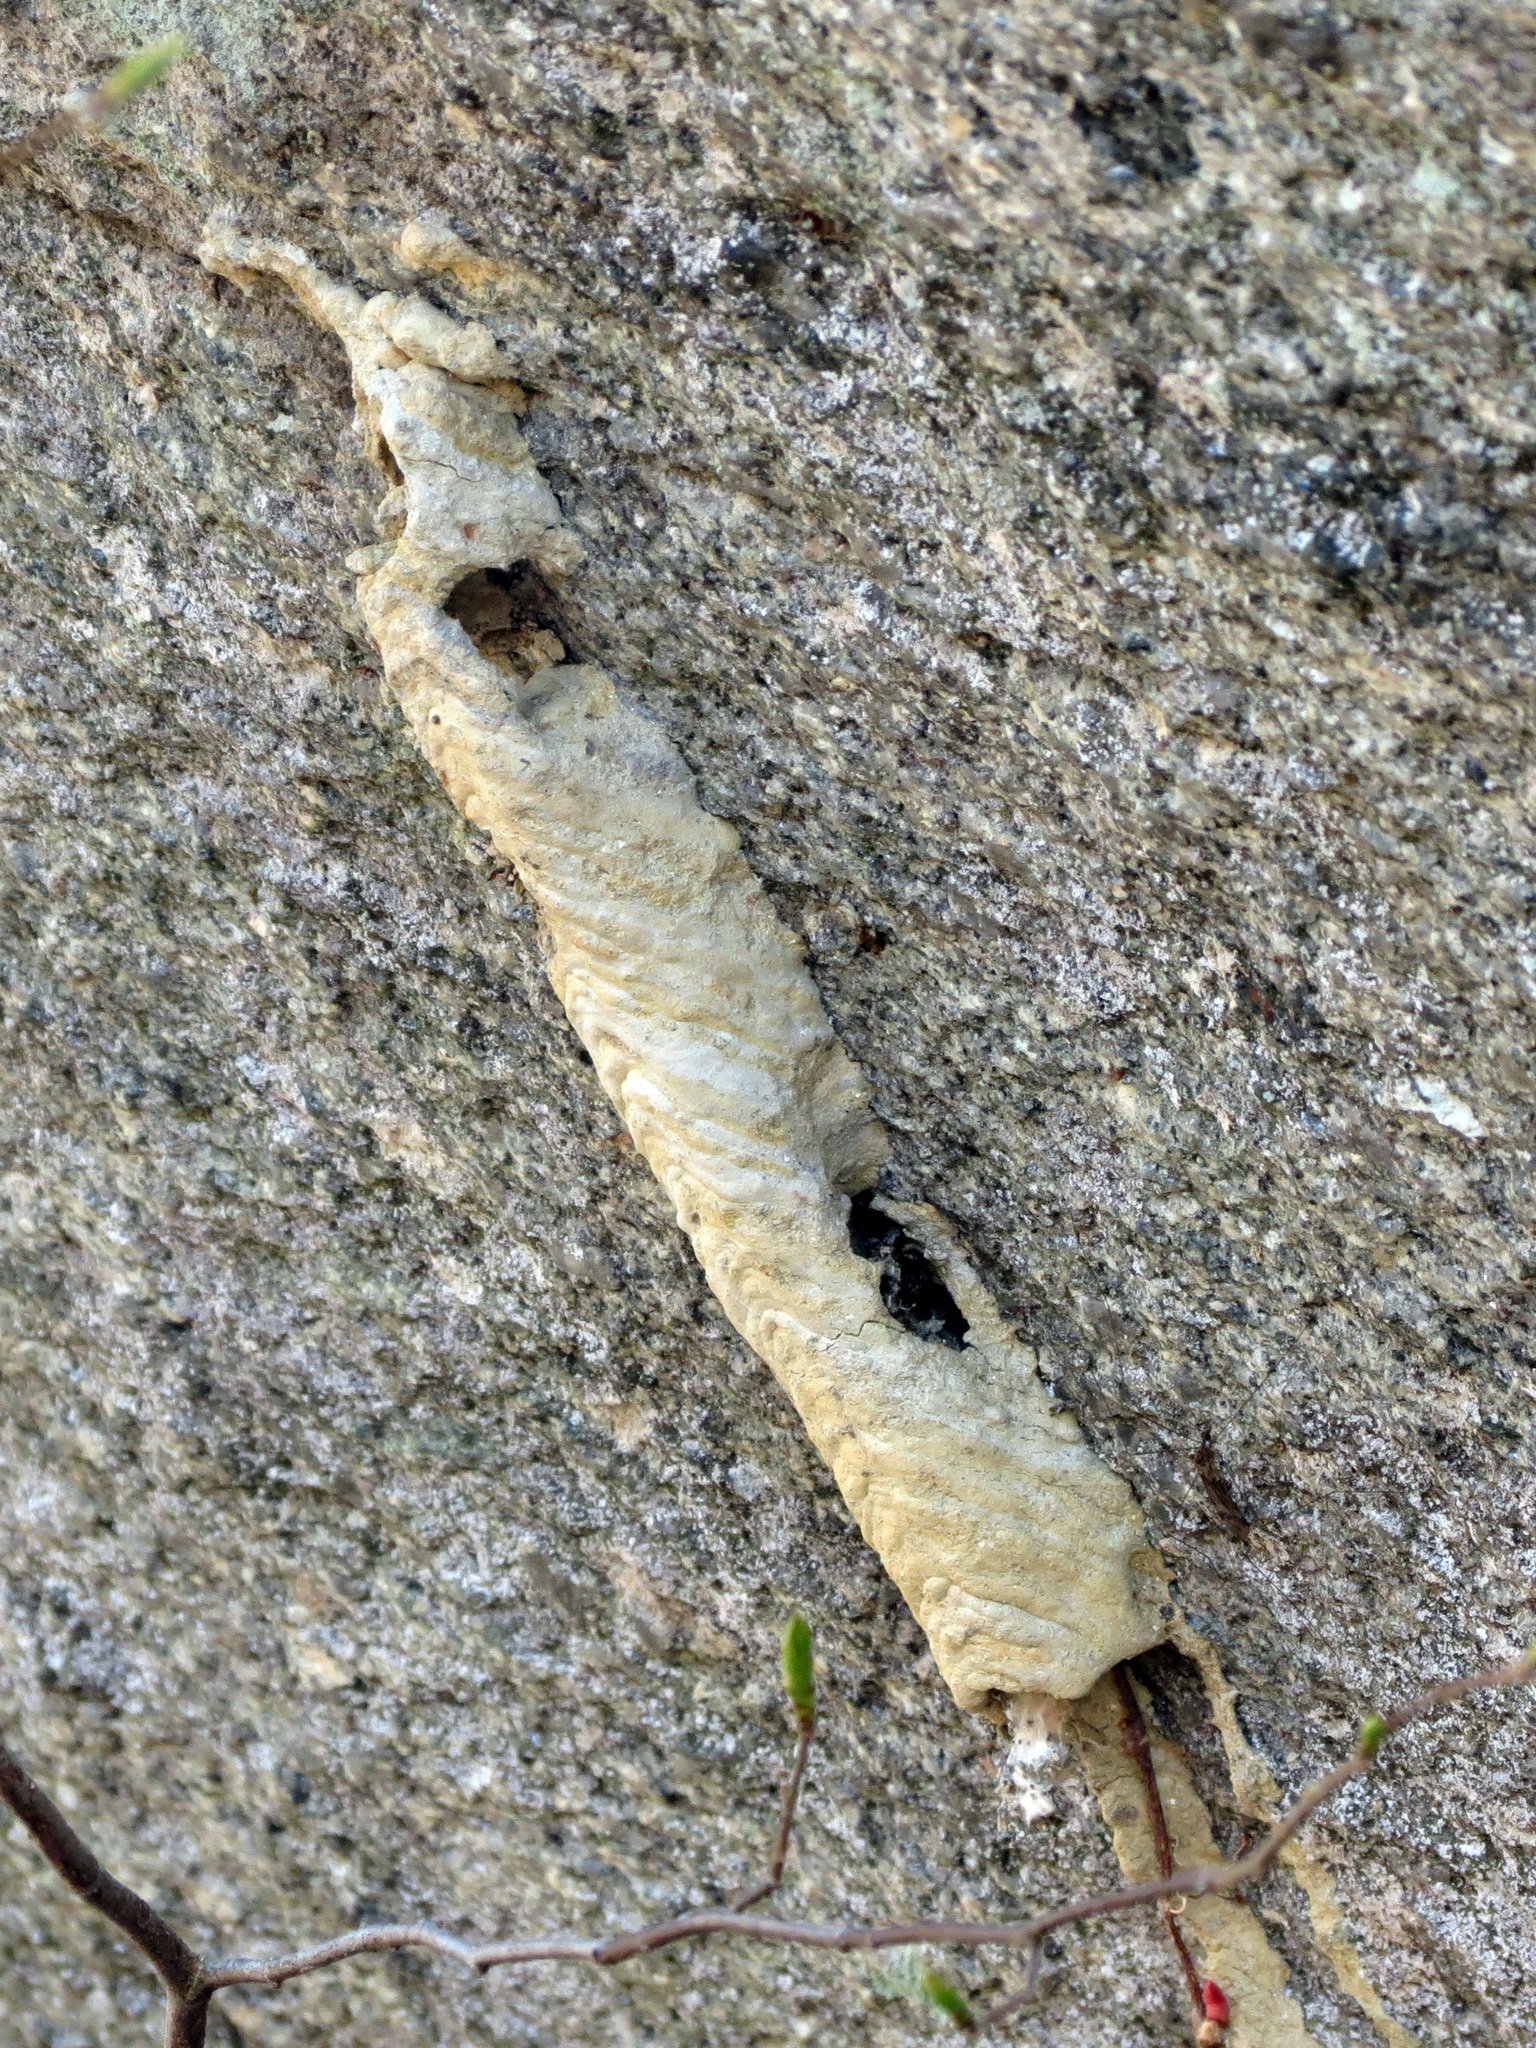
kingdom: Animalia
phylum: Arthropoda
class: Insecta
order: Hymenoptera
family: Crabronidae
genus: Trypoxylon
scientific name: Trypoxylon politum
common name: Organ-pipe mud-dauber wasp
